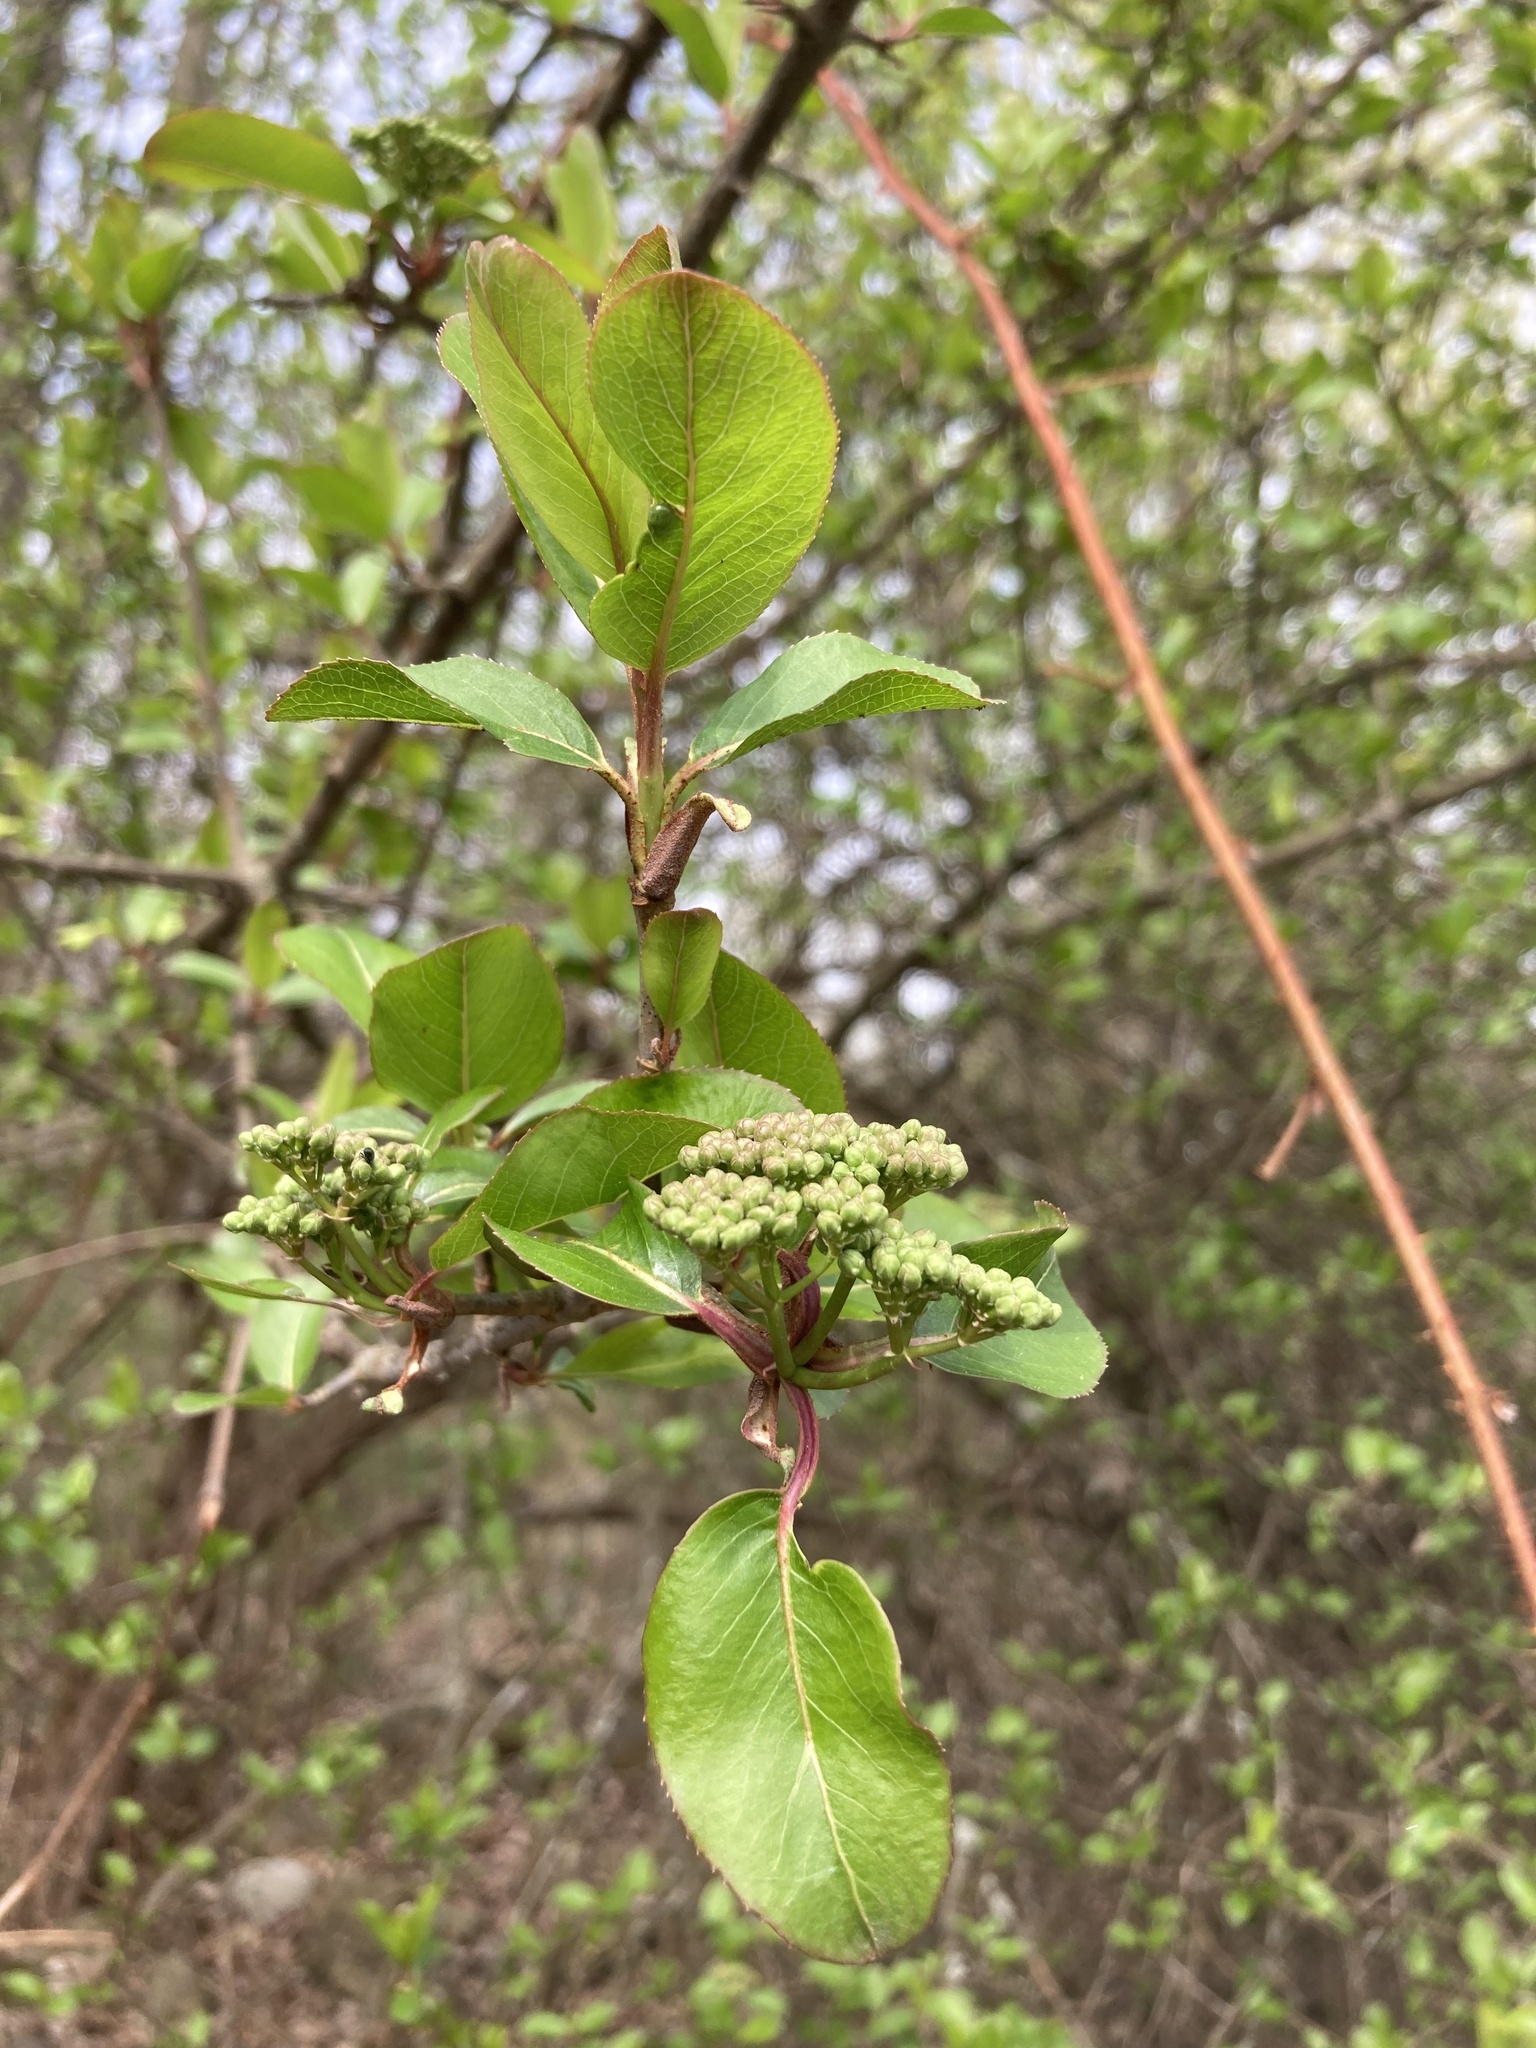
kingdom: Plantae
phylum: Tracheophyta
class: Magnoliopsida
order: Dipsacales
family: Viburnaceae
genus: Viburnum
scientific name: Viburnum prunifolium
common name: Black haw
